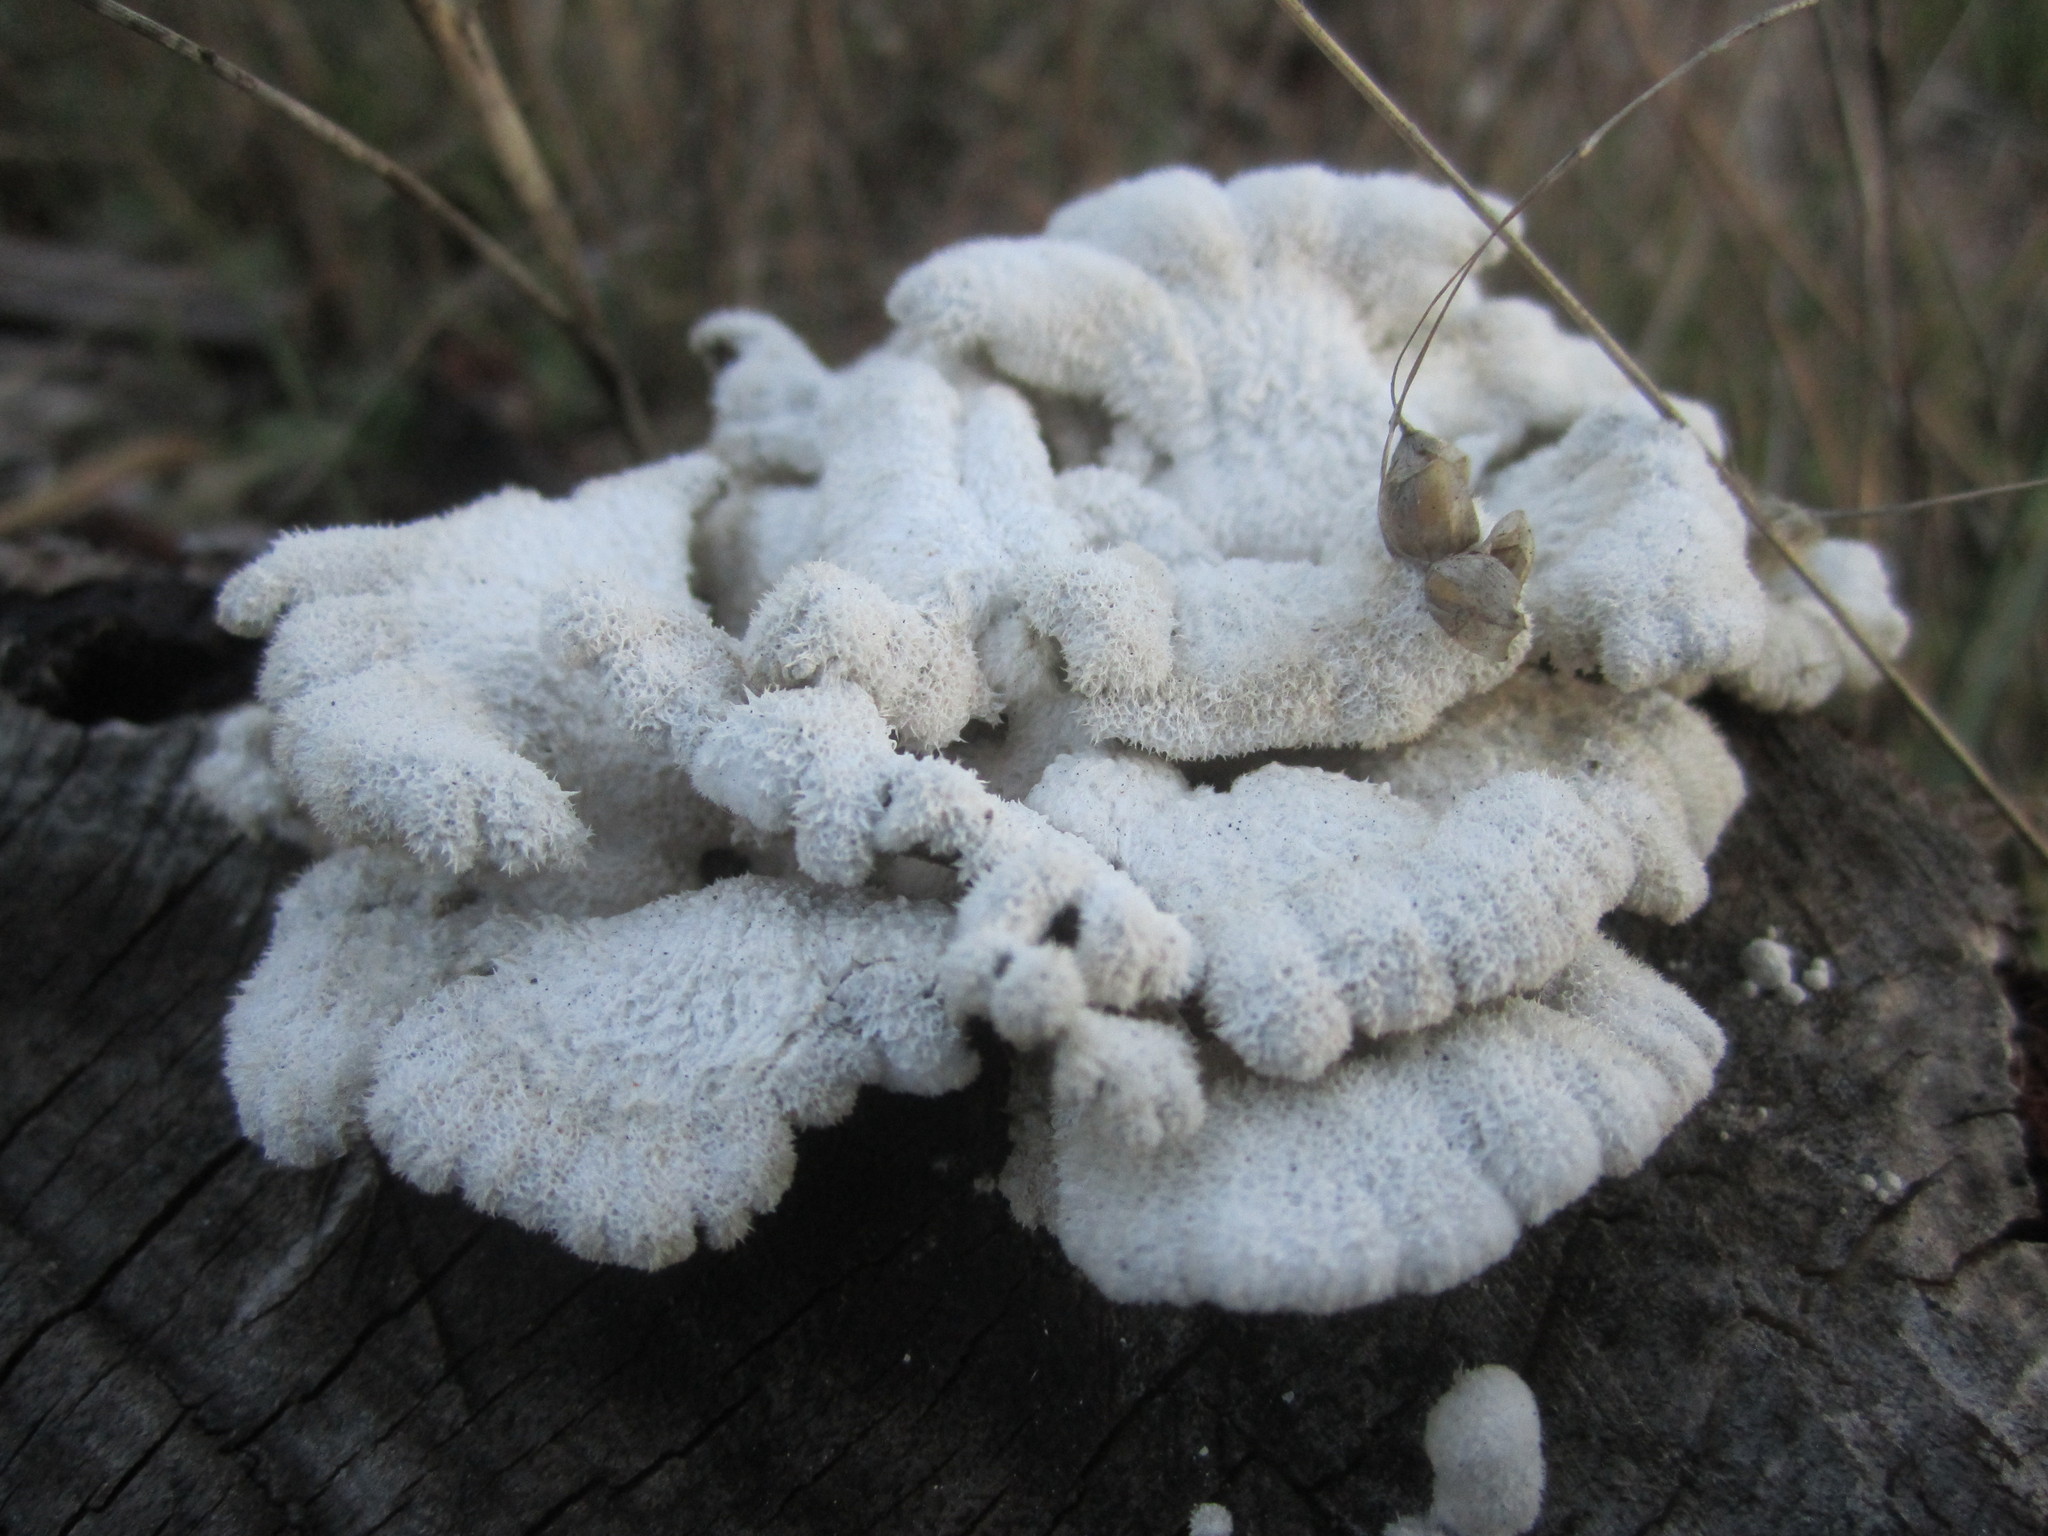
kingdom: Fungi
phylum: Basidiomycota
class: Agaricomycetes
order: Agaricales
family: Schizophyllaceae
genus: Schizophyllum
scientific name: Schizophyllum commune
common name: Common porecrust
